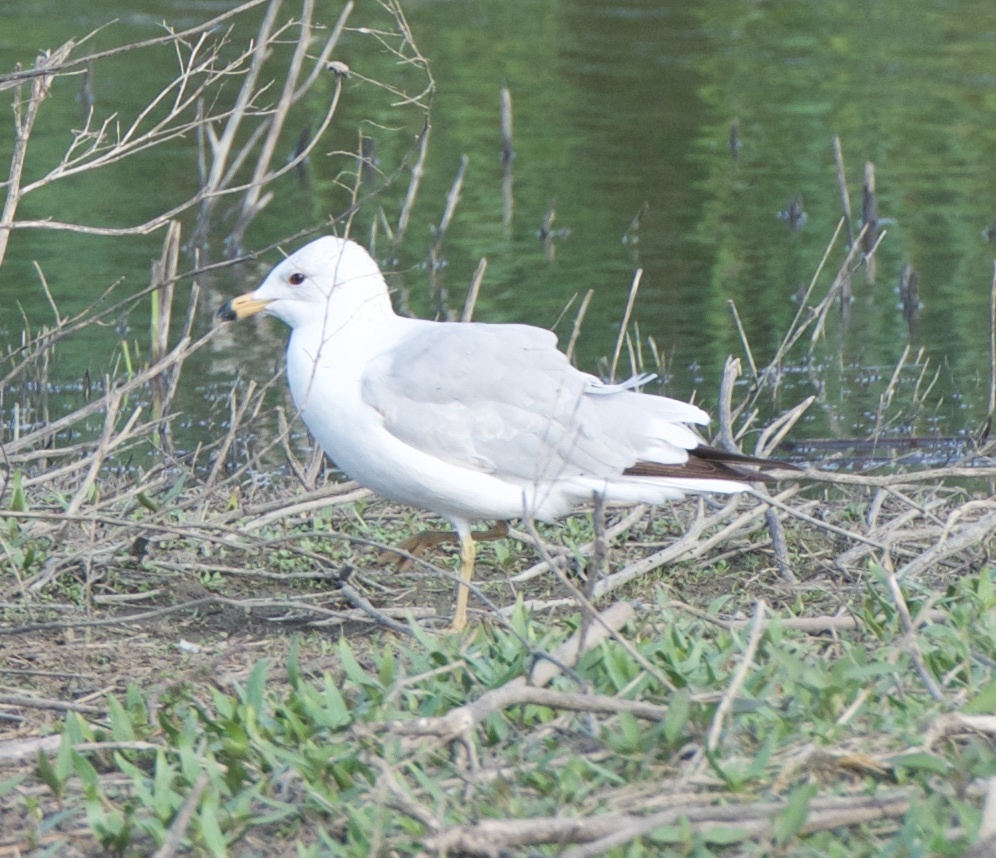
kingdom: Animalia
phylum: Chordata
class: Aves
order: Charadriiformes
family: Laridae
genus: Larus
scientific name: Larus delawarensis
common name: Ring-billed gull
